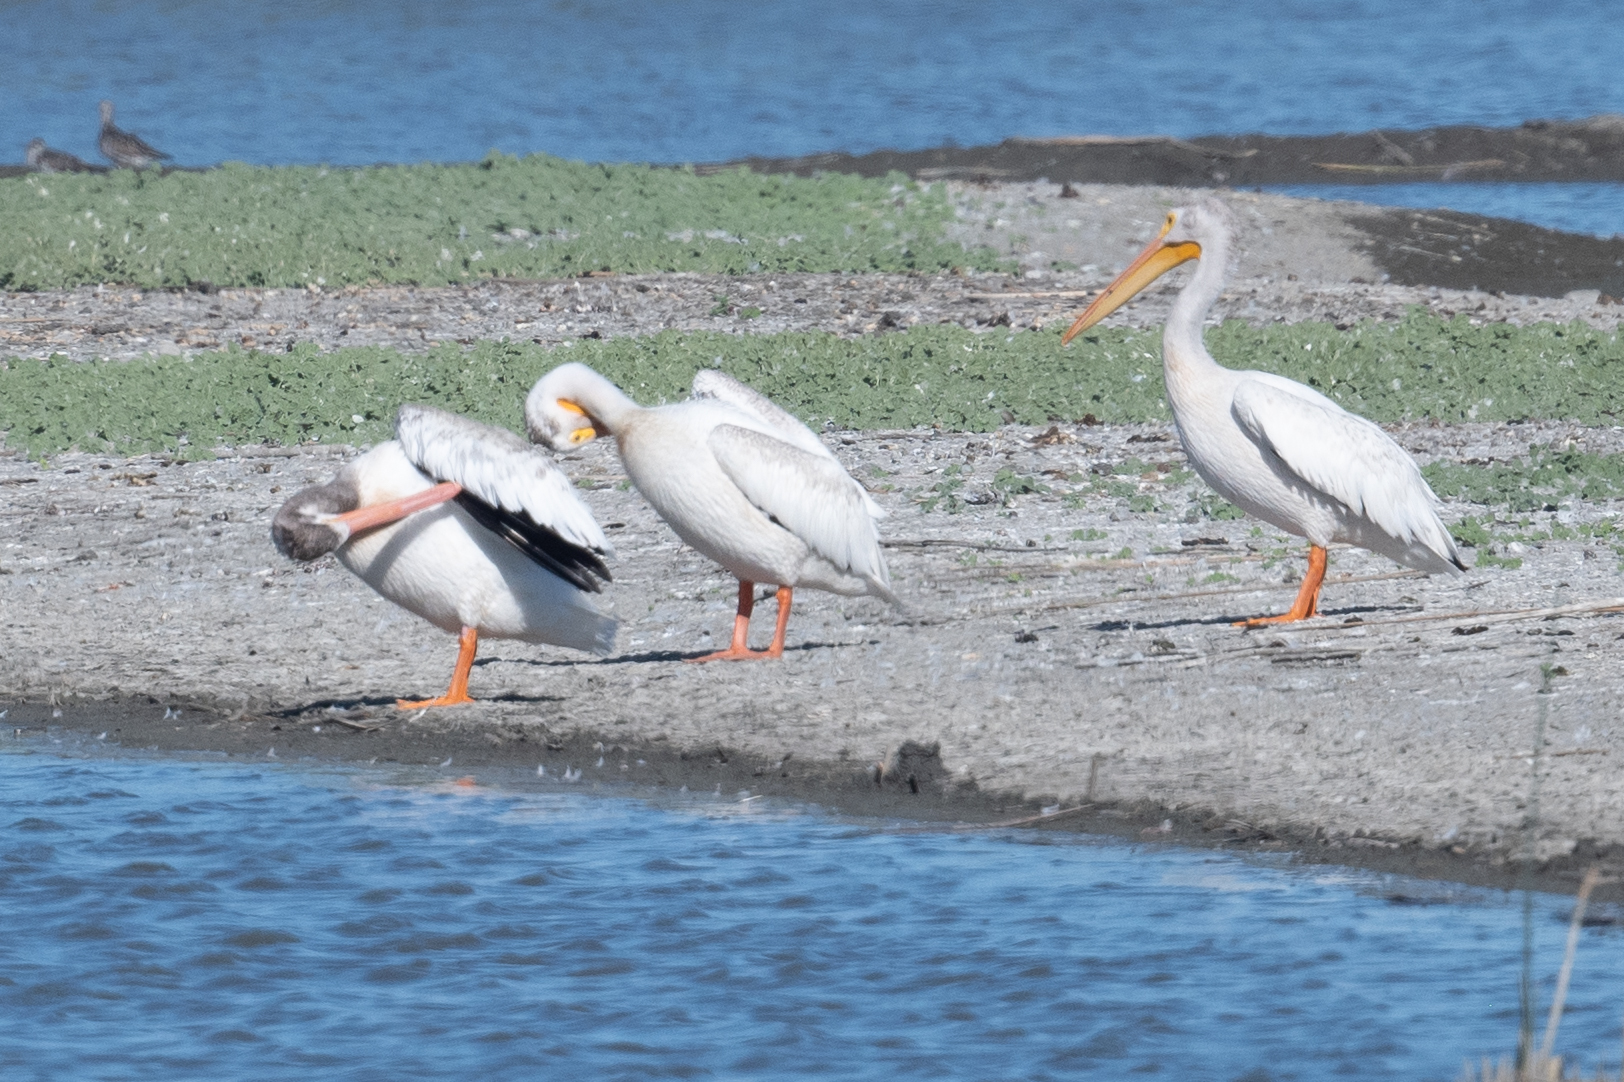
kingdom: Animalia
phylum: Chordata
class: Aves
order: Pelecaniformes
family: Pelecanidae
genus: Pelecanus
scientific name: Pelecanus erythrorhynchos
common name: American white pelican
